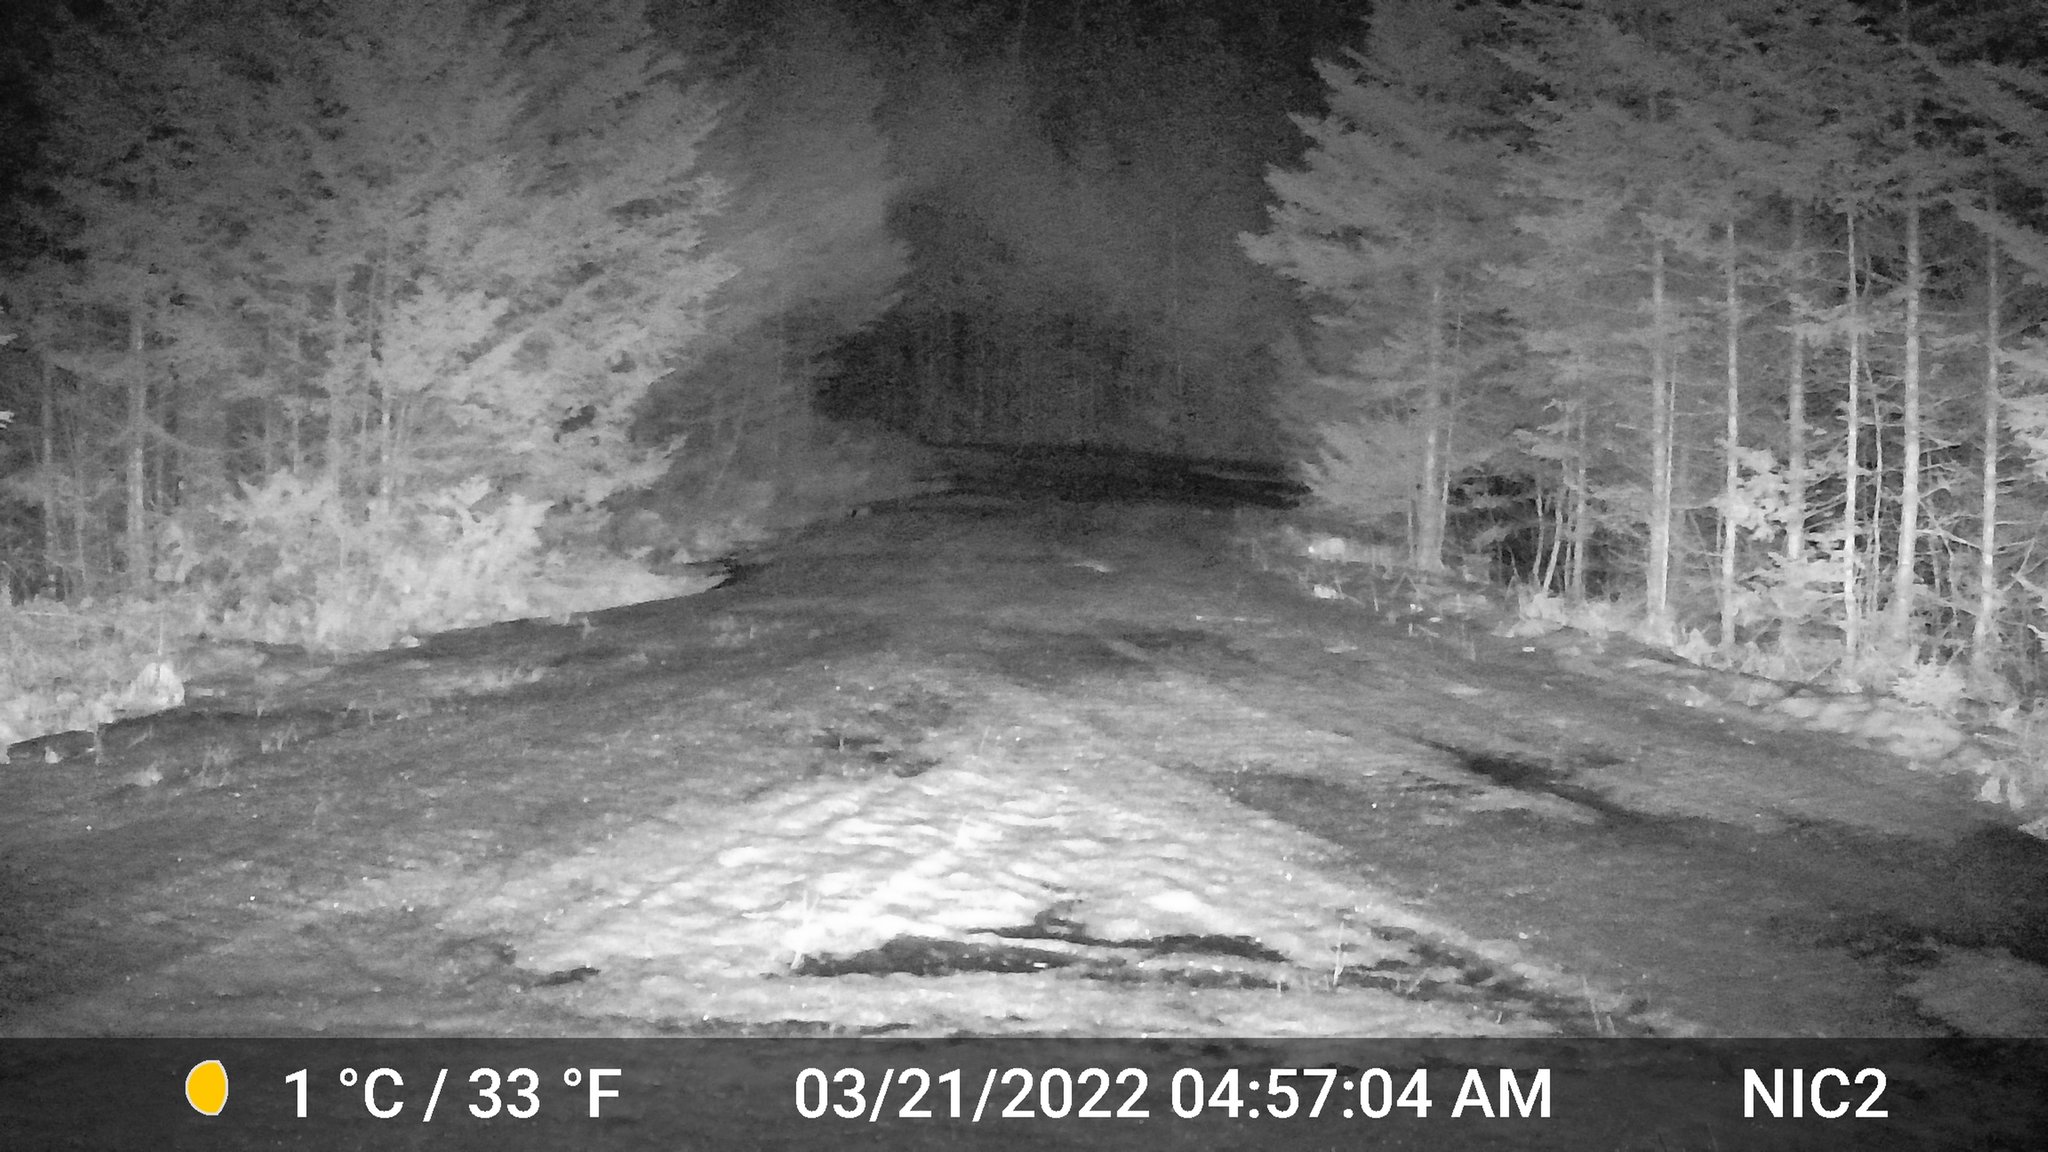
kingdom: Animalia
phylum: Chordata
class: Mammalia
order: Lagomorpha
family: Leporidae
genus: Lepus
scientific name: Lepus americanus
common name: Snowshoe hare
